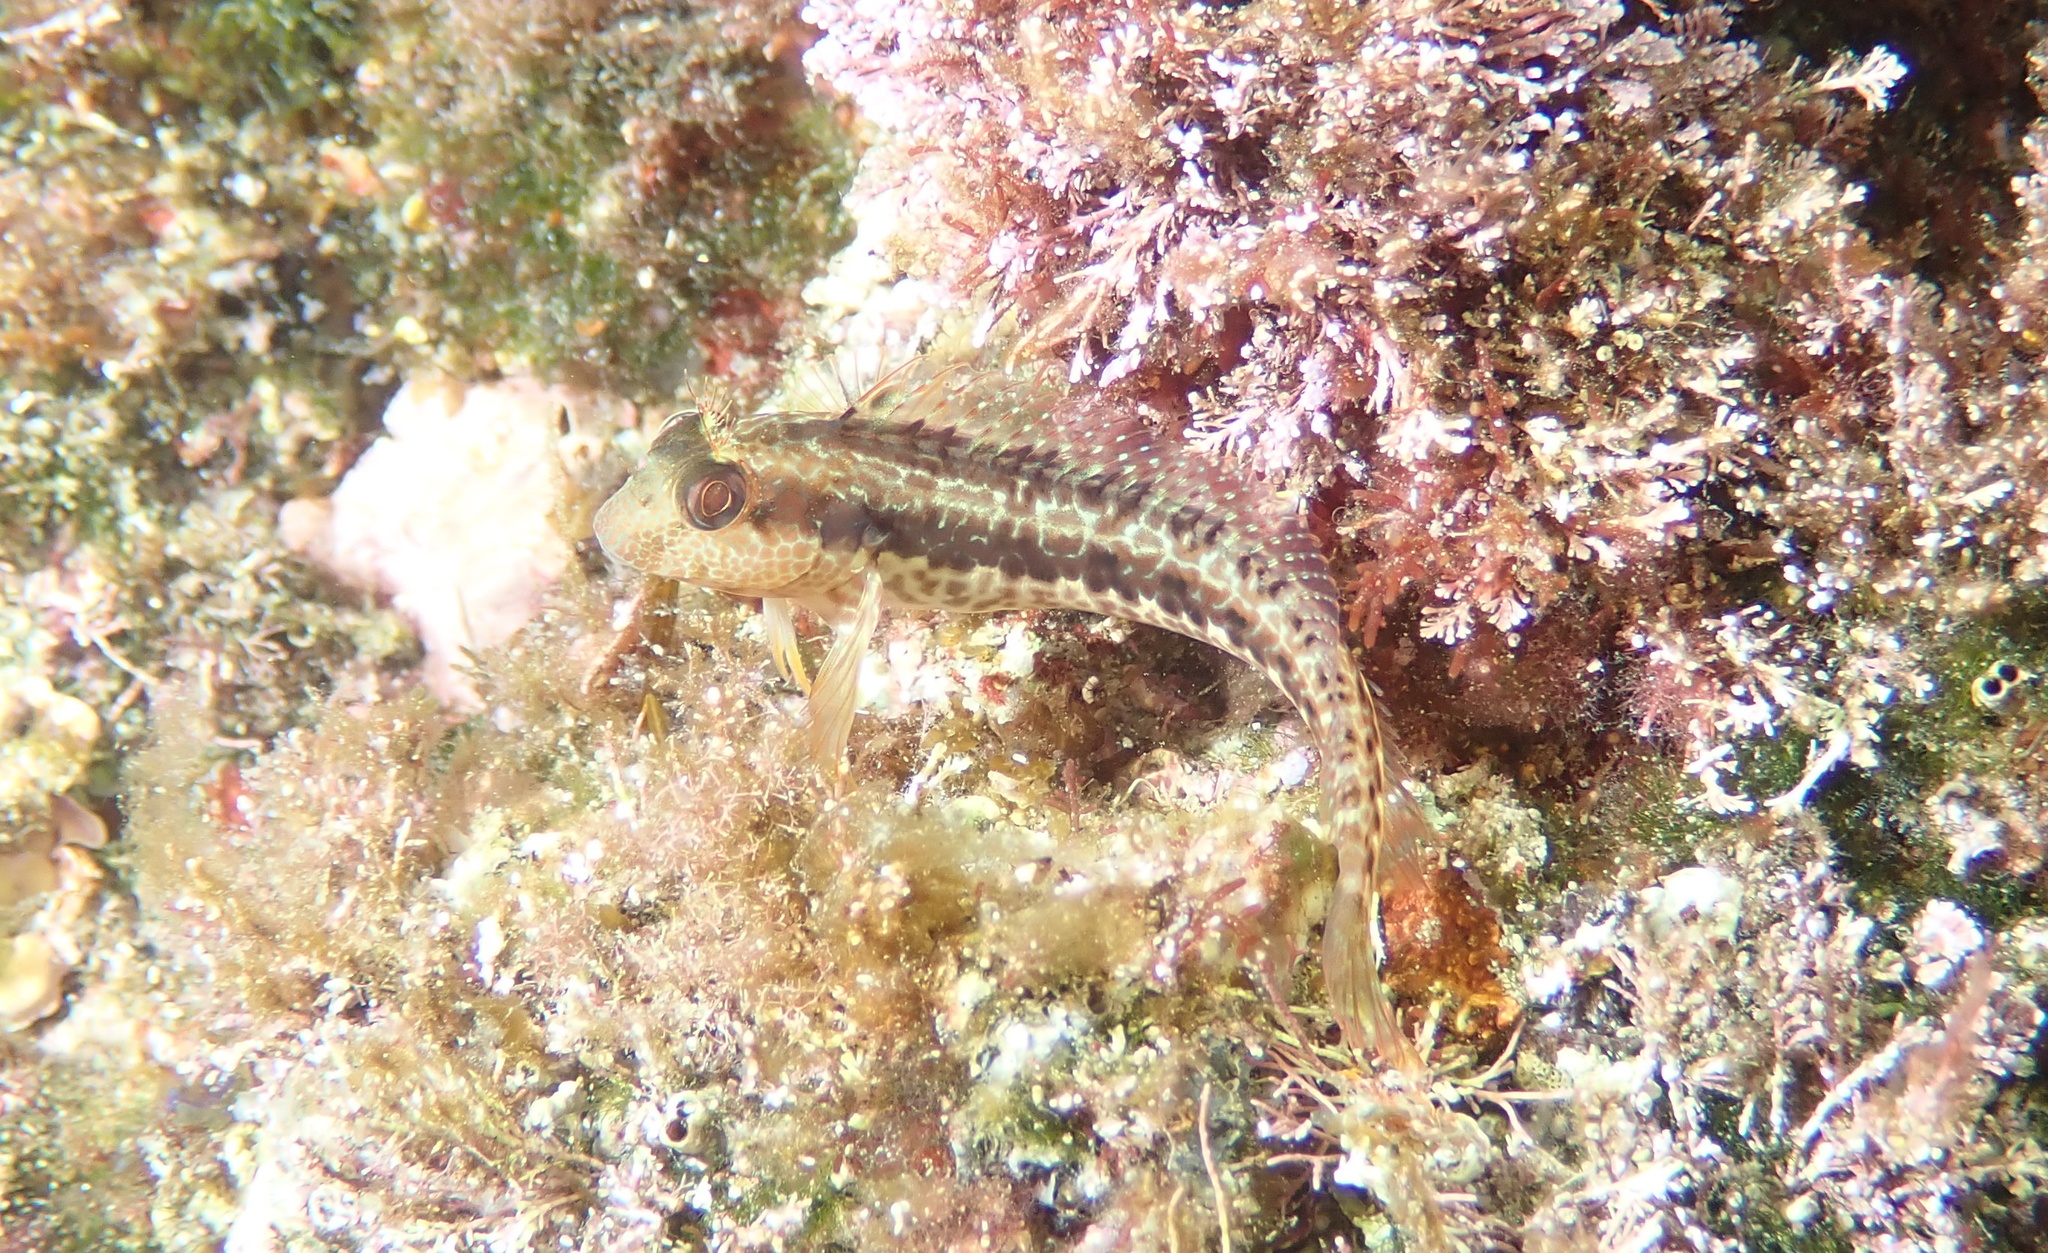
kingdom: Animalia
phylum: Chordata
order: Perciformes
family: Blenniidae
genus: Parablennius
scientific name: Parablennius pilicornis
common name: Ringneck blenny
